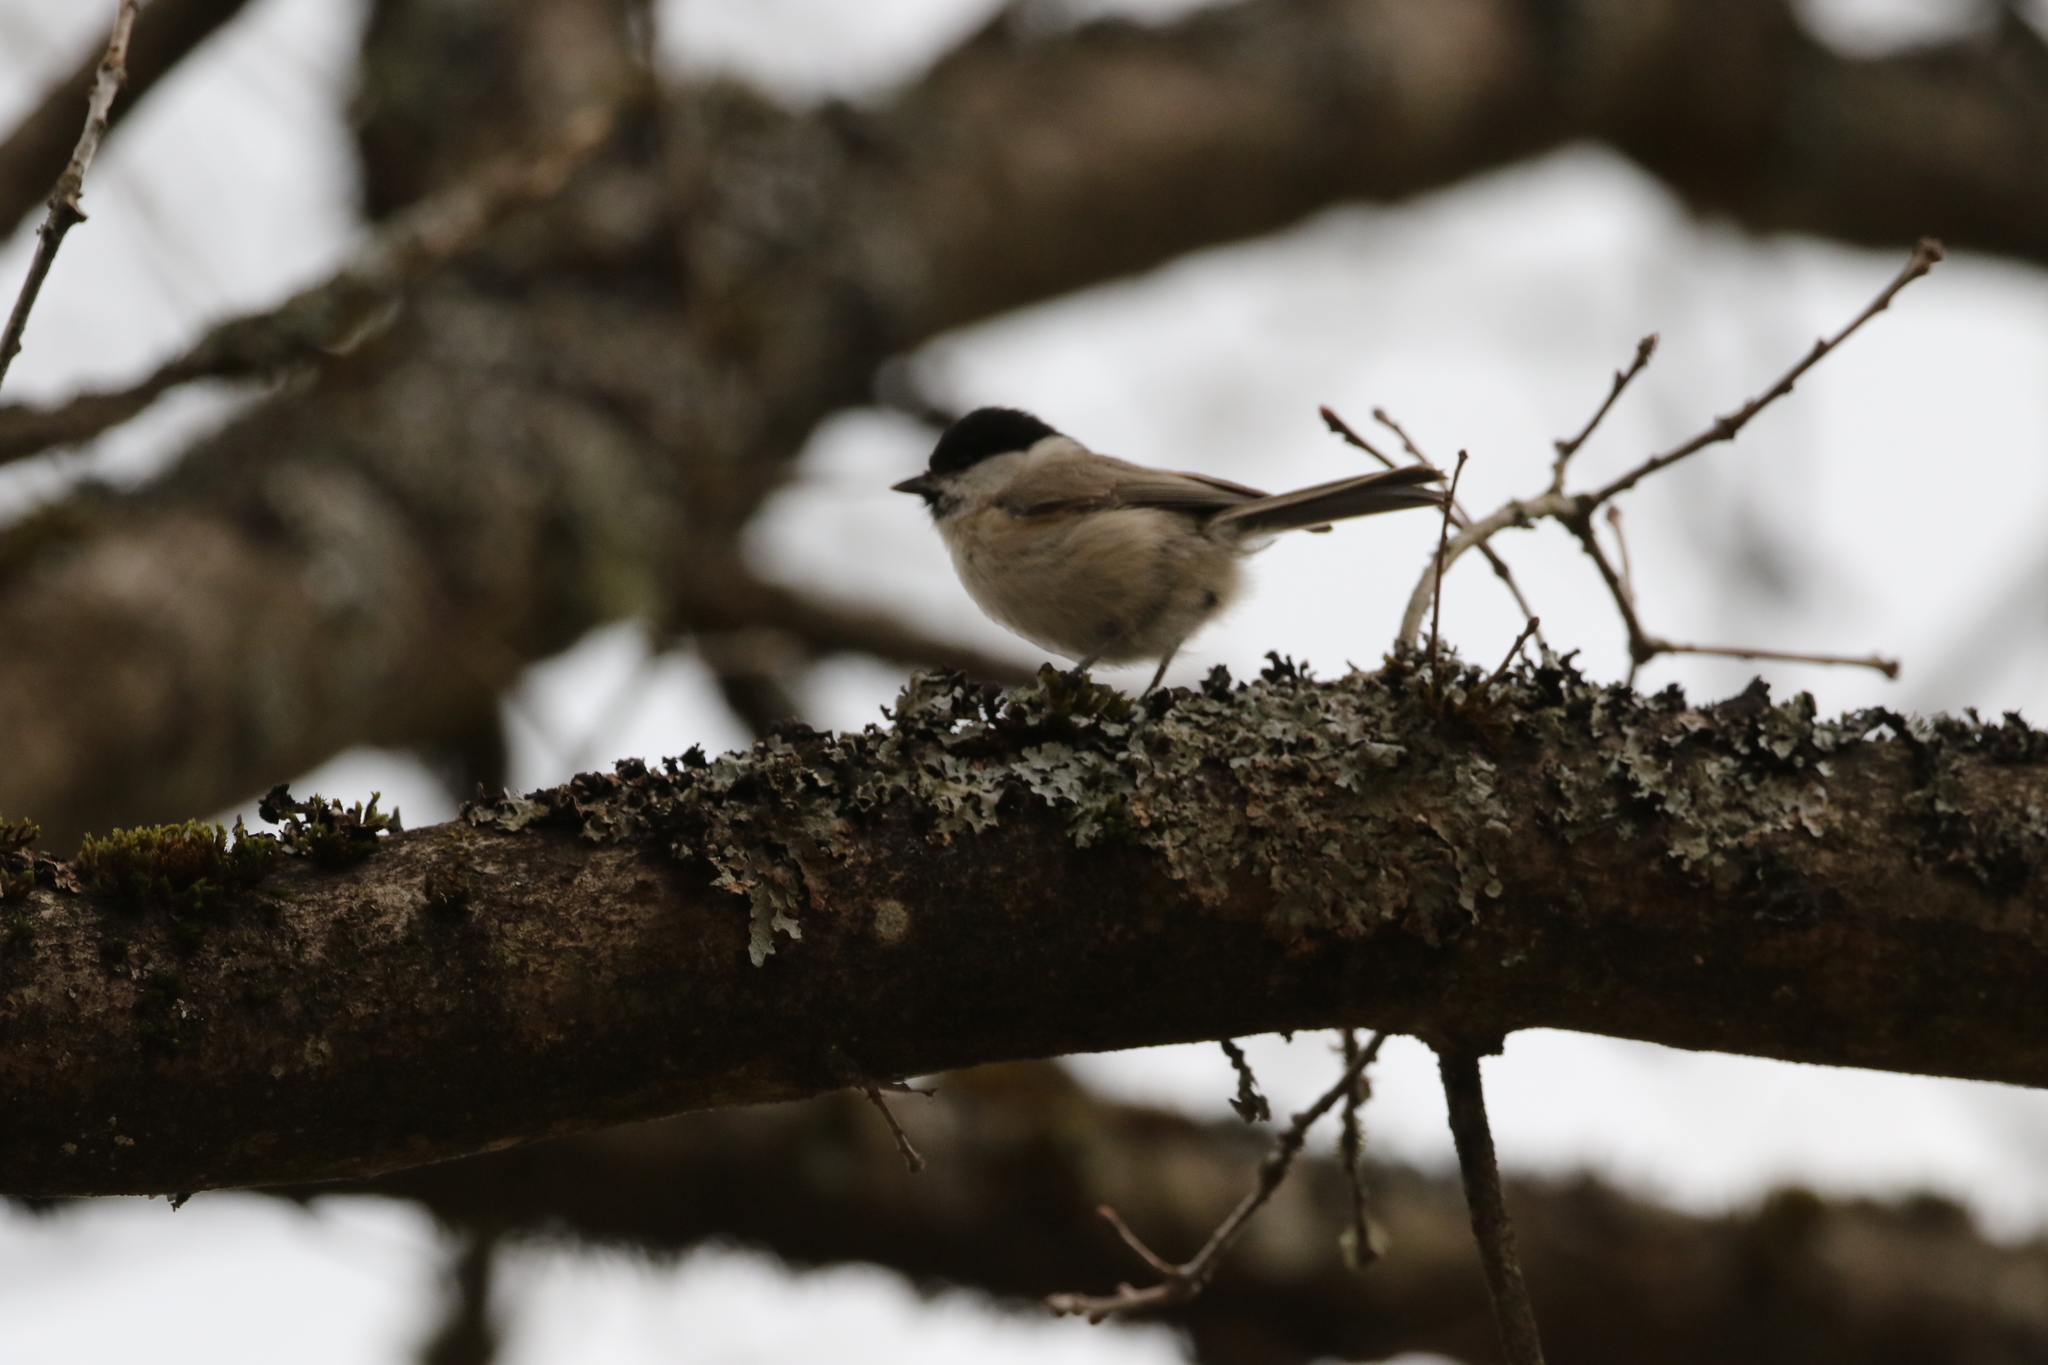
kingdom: Animalia
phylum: Chordata
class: Aves
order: Passeriformes
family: Paridae
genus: Poecile
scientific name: Poecile palustris
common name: Marsh tit
